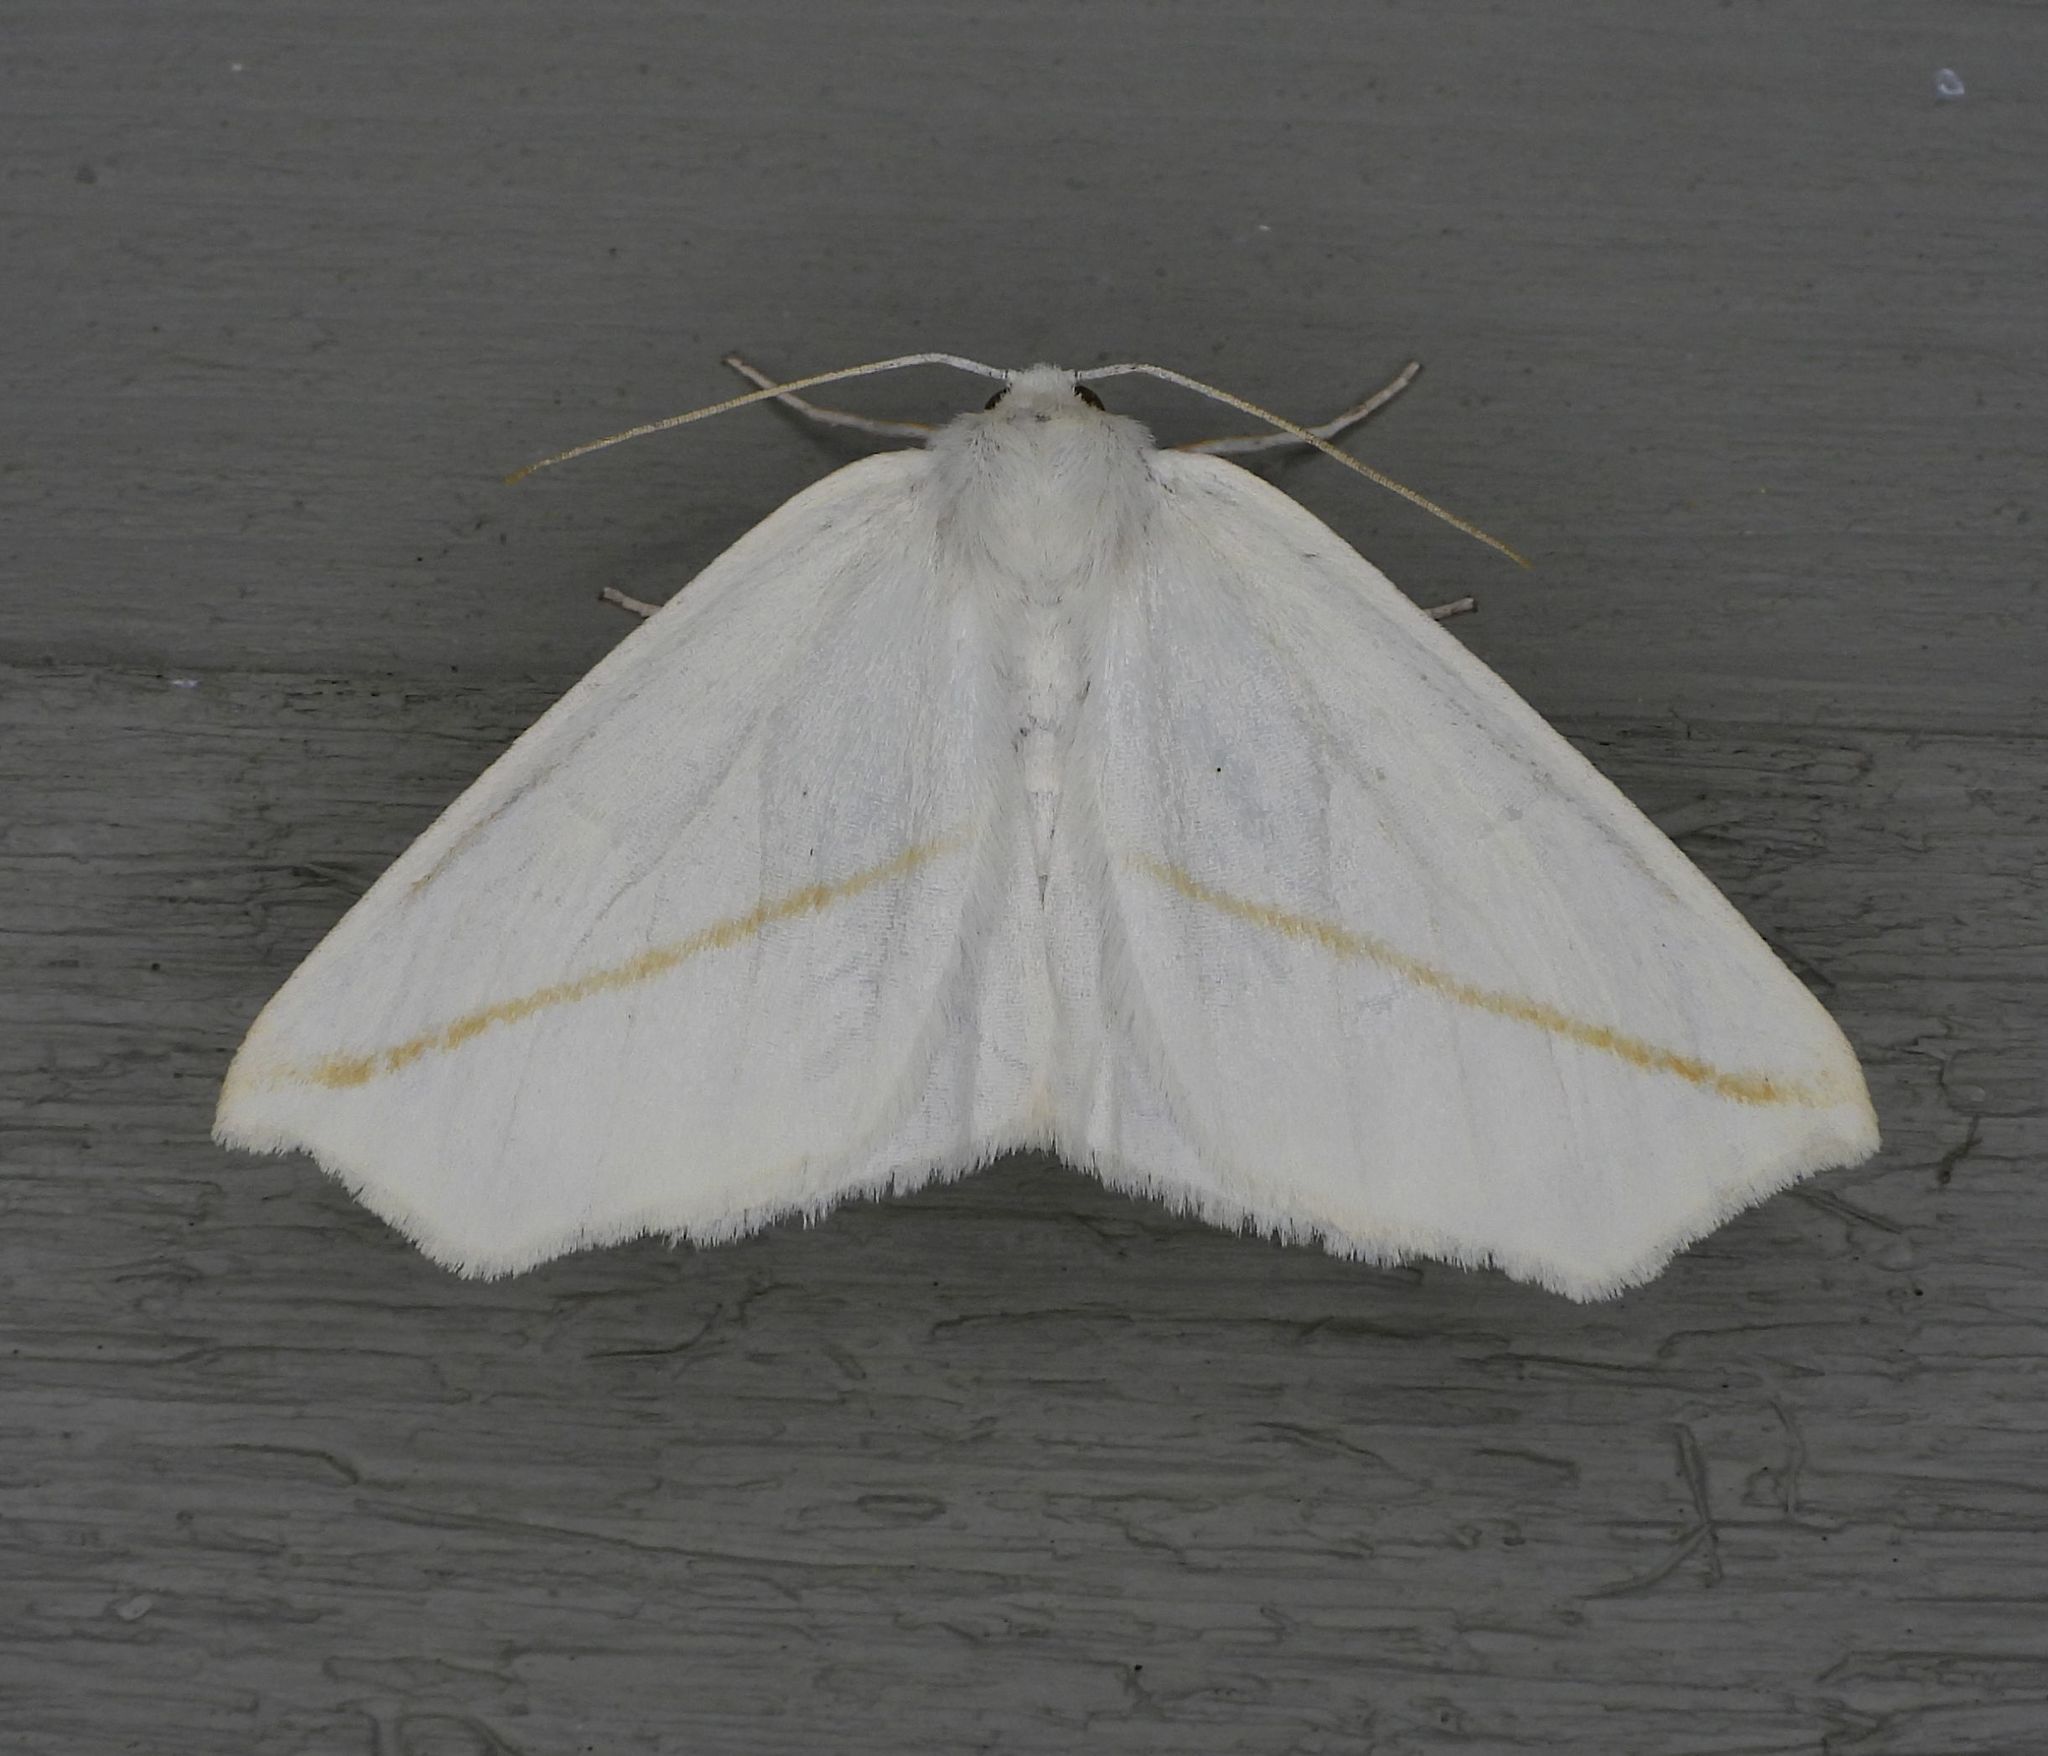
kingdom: Animalia
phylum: Arthropoda
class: Insecta
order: Lepidoptera
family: Geometridae
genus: Tetracis
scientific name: Tetracis cachexiata
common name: White slant-line
